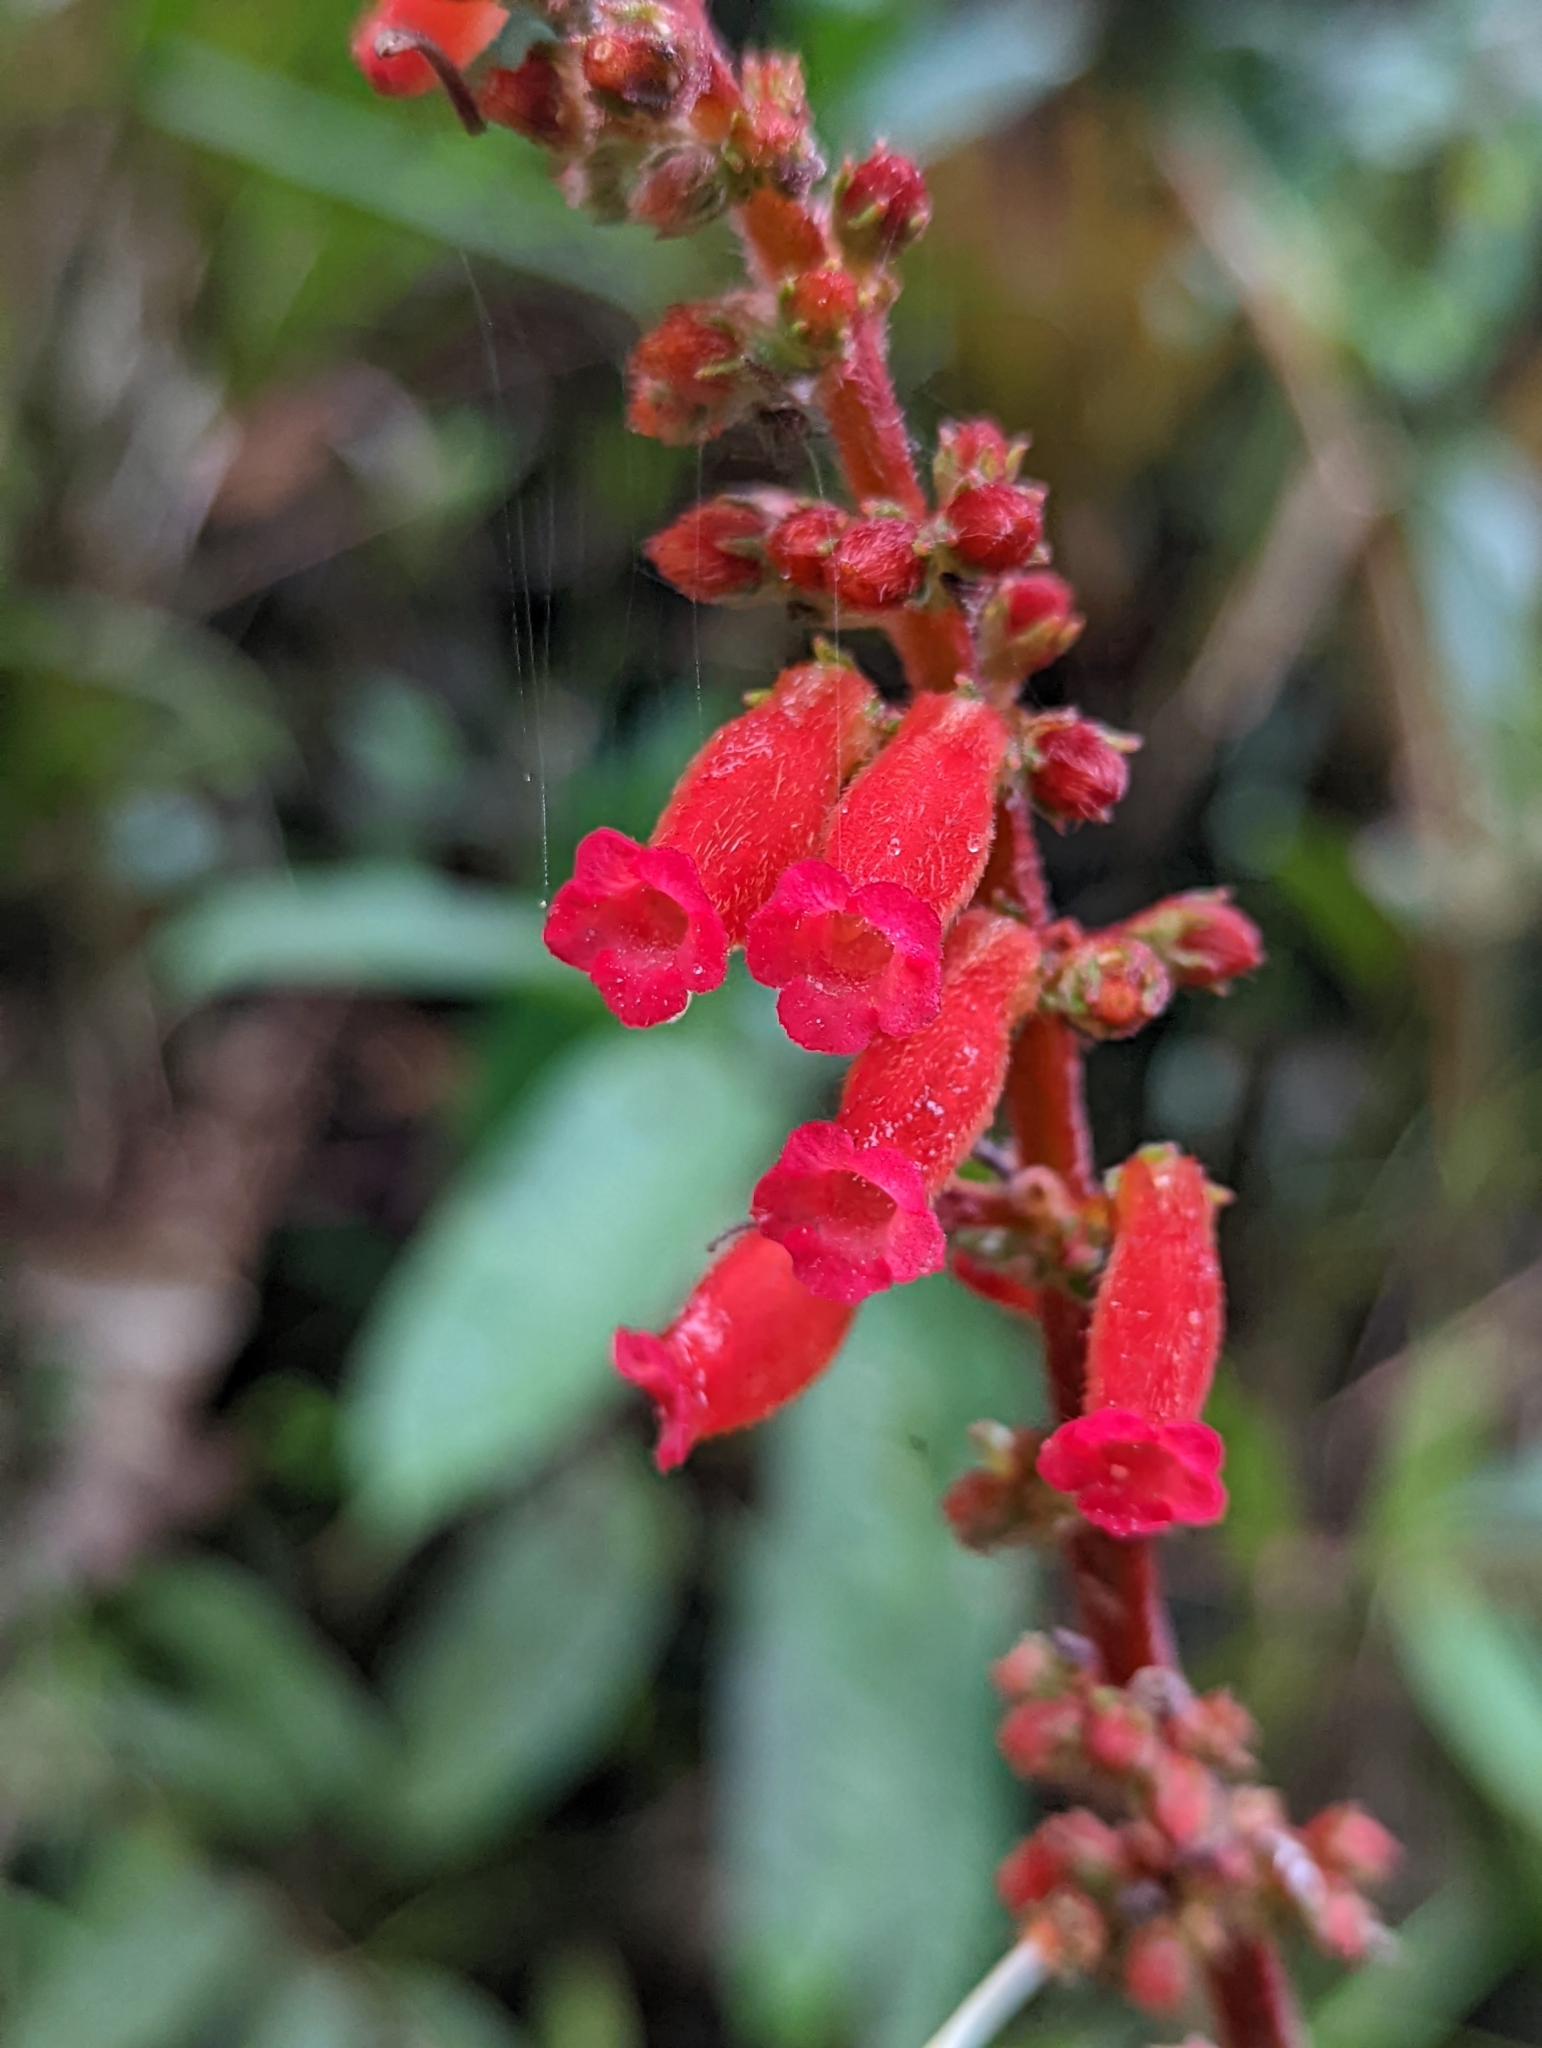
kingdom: Plantae
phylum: Tracheophyta
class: Magnoliopsida
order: Lamiales
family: Gesneriaceae
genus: Kohleria
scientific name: Kohleria spicata
